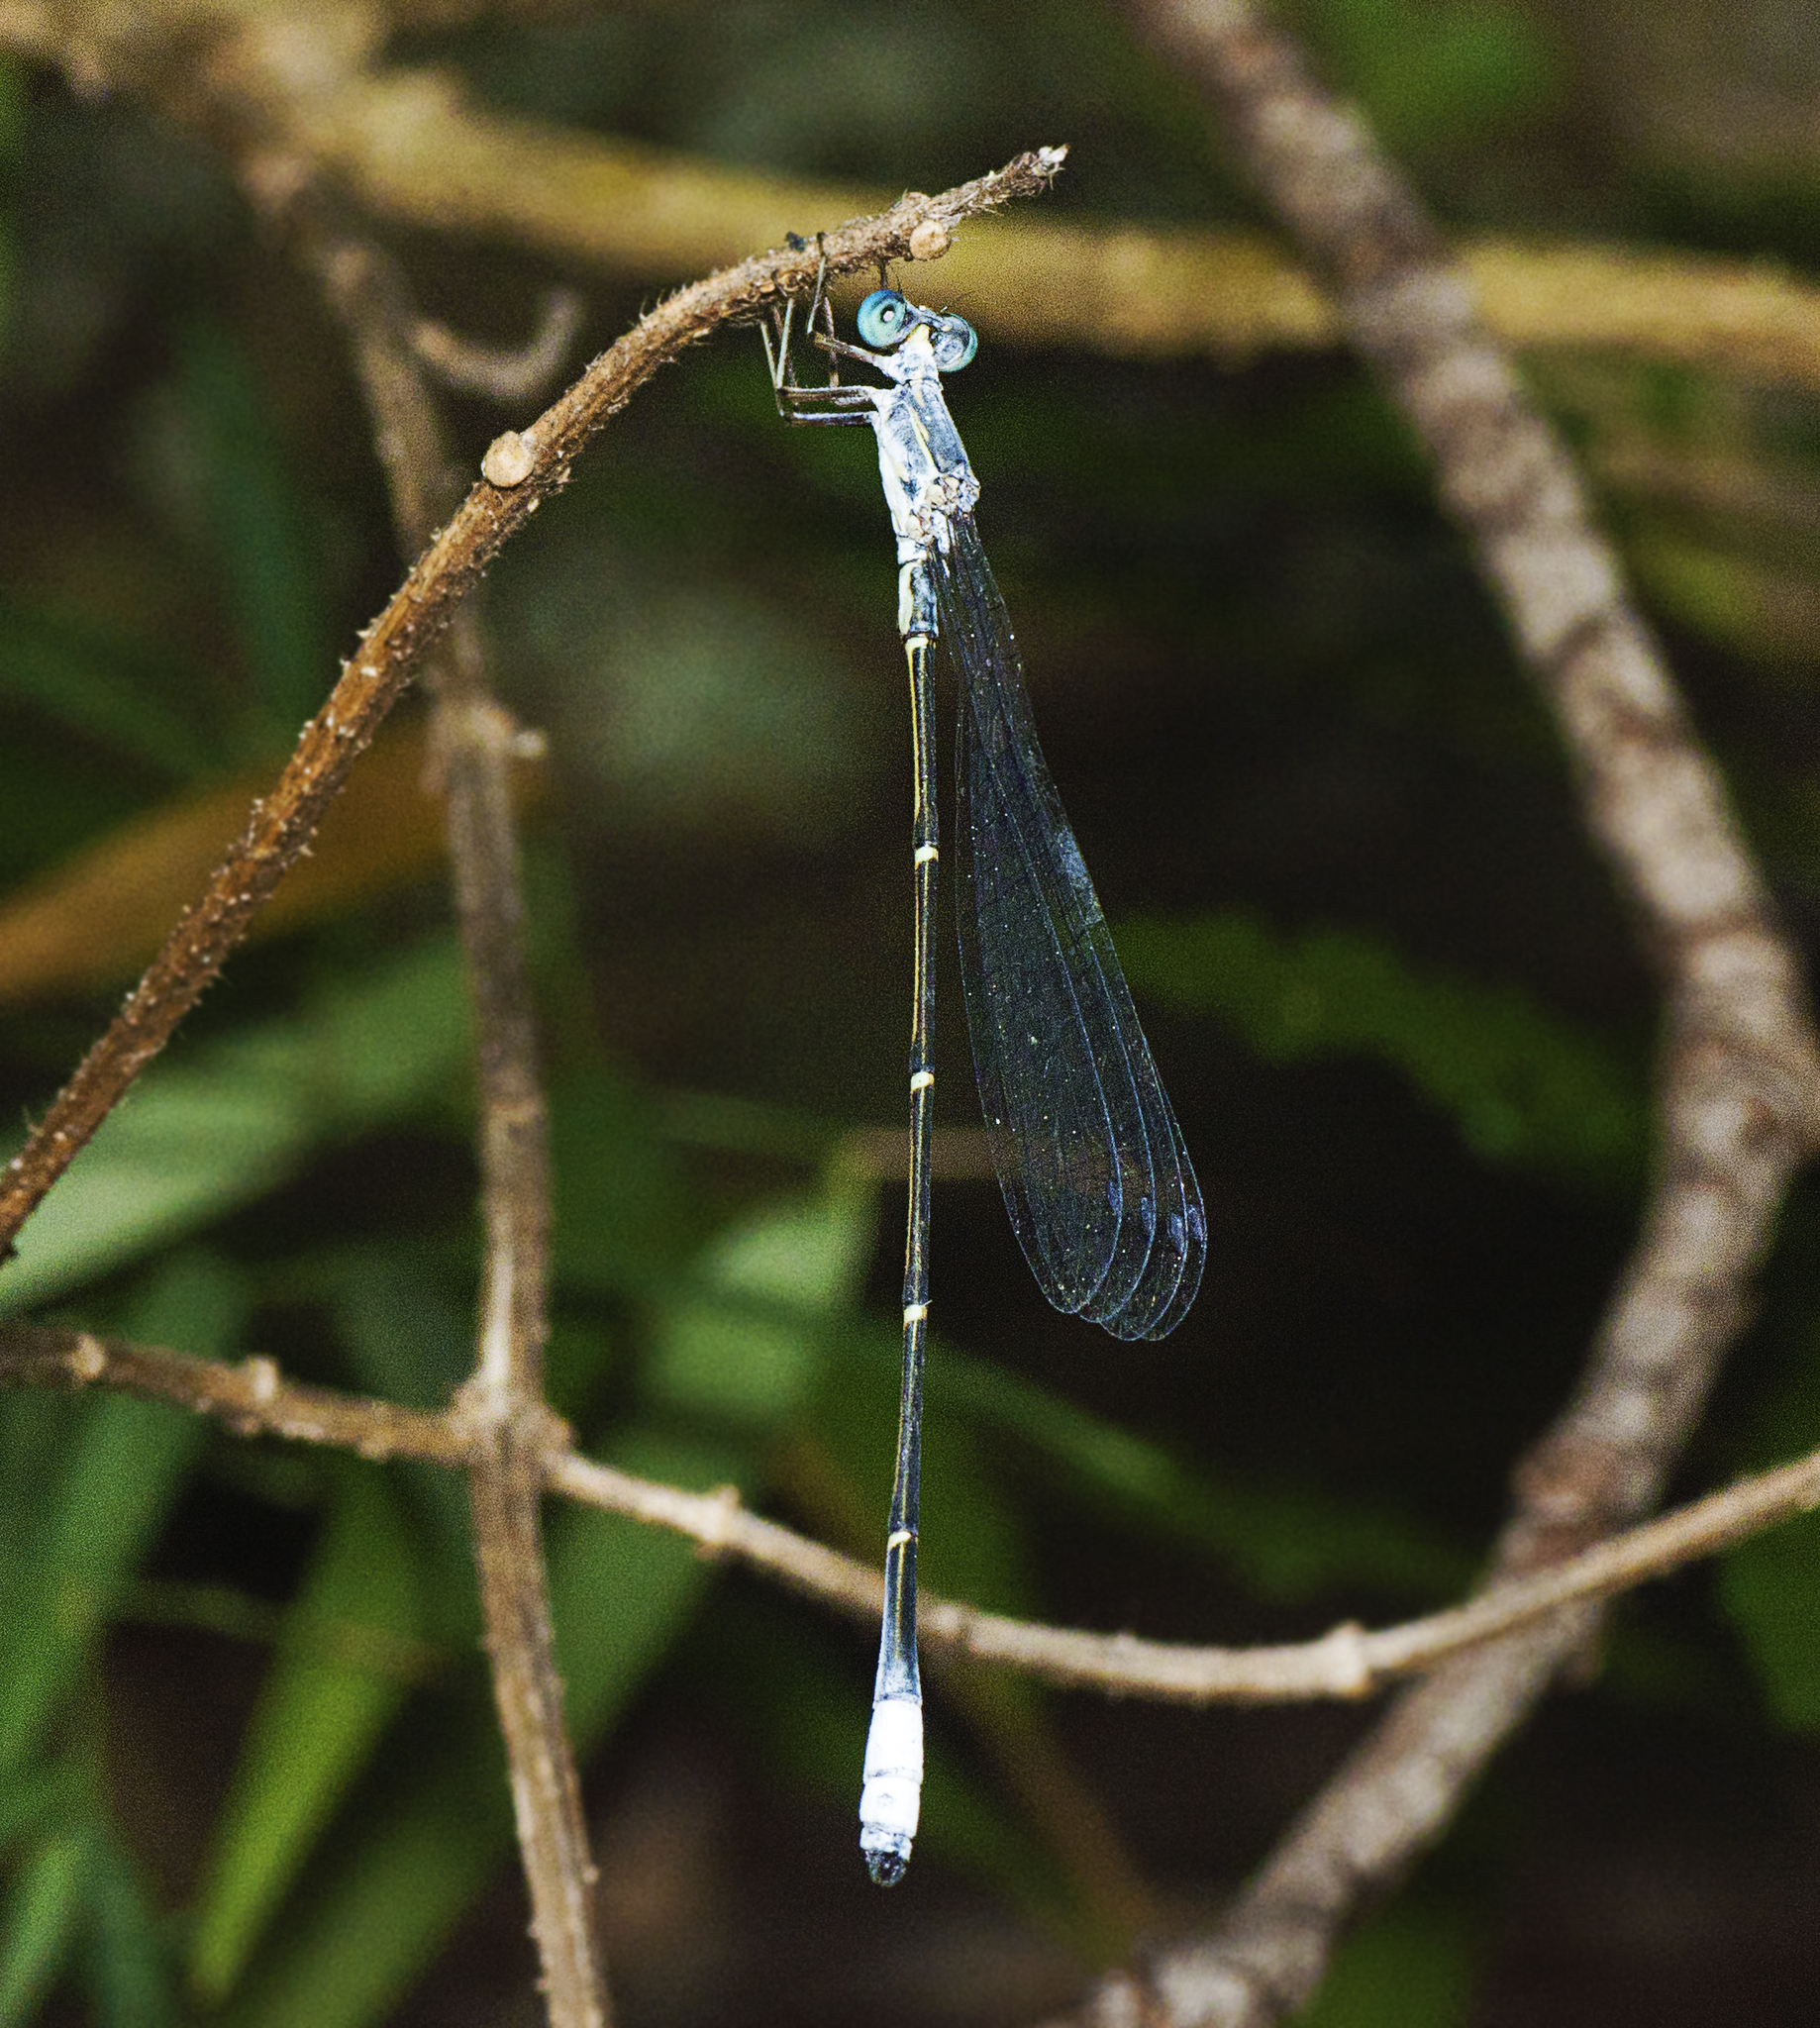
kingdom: Animalia
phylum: Arthropoda
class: Insecta
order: Odonata
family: Isostictidae
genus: Labidiosticta
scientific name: Labidiosticta vallisi
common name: Large wiretail
